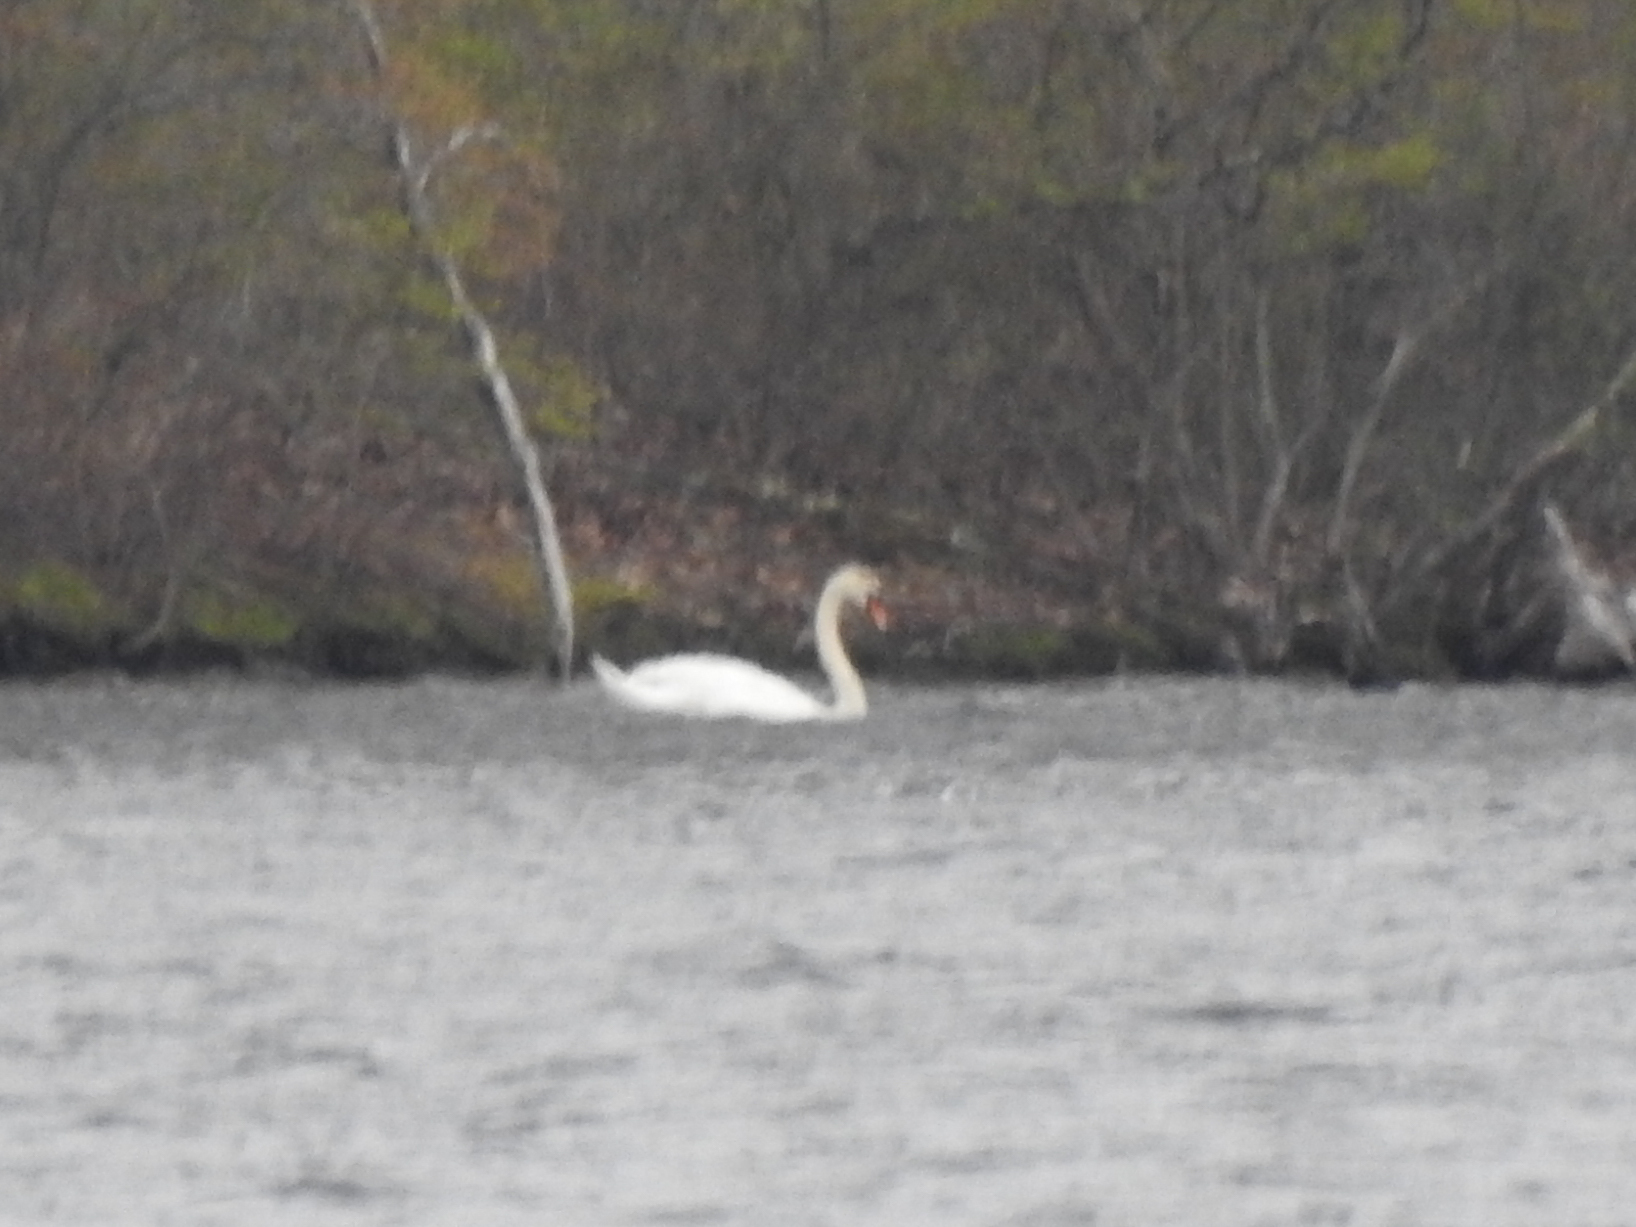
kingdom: Animalia
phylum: Chordata
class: Aves
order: Anseriformes
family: Anatidae
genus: Cygnus
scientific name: Cygnus olor
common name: Mute swan
